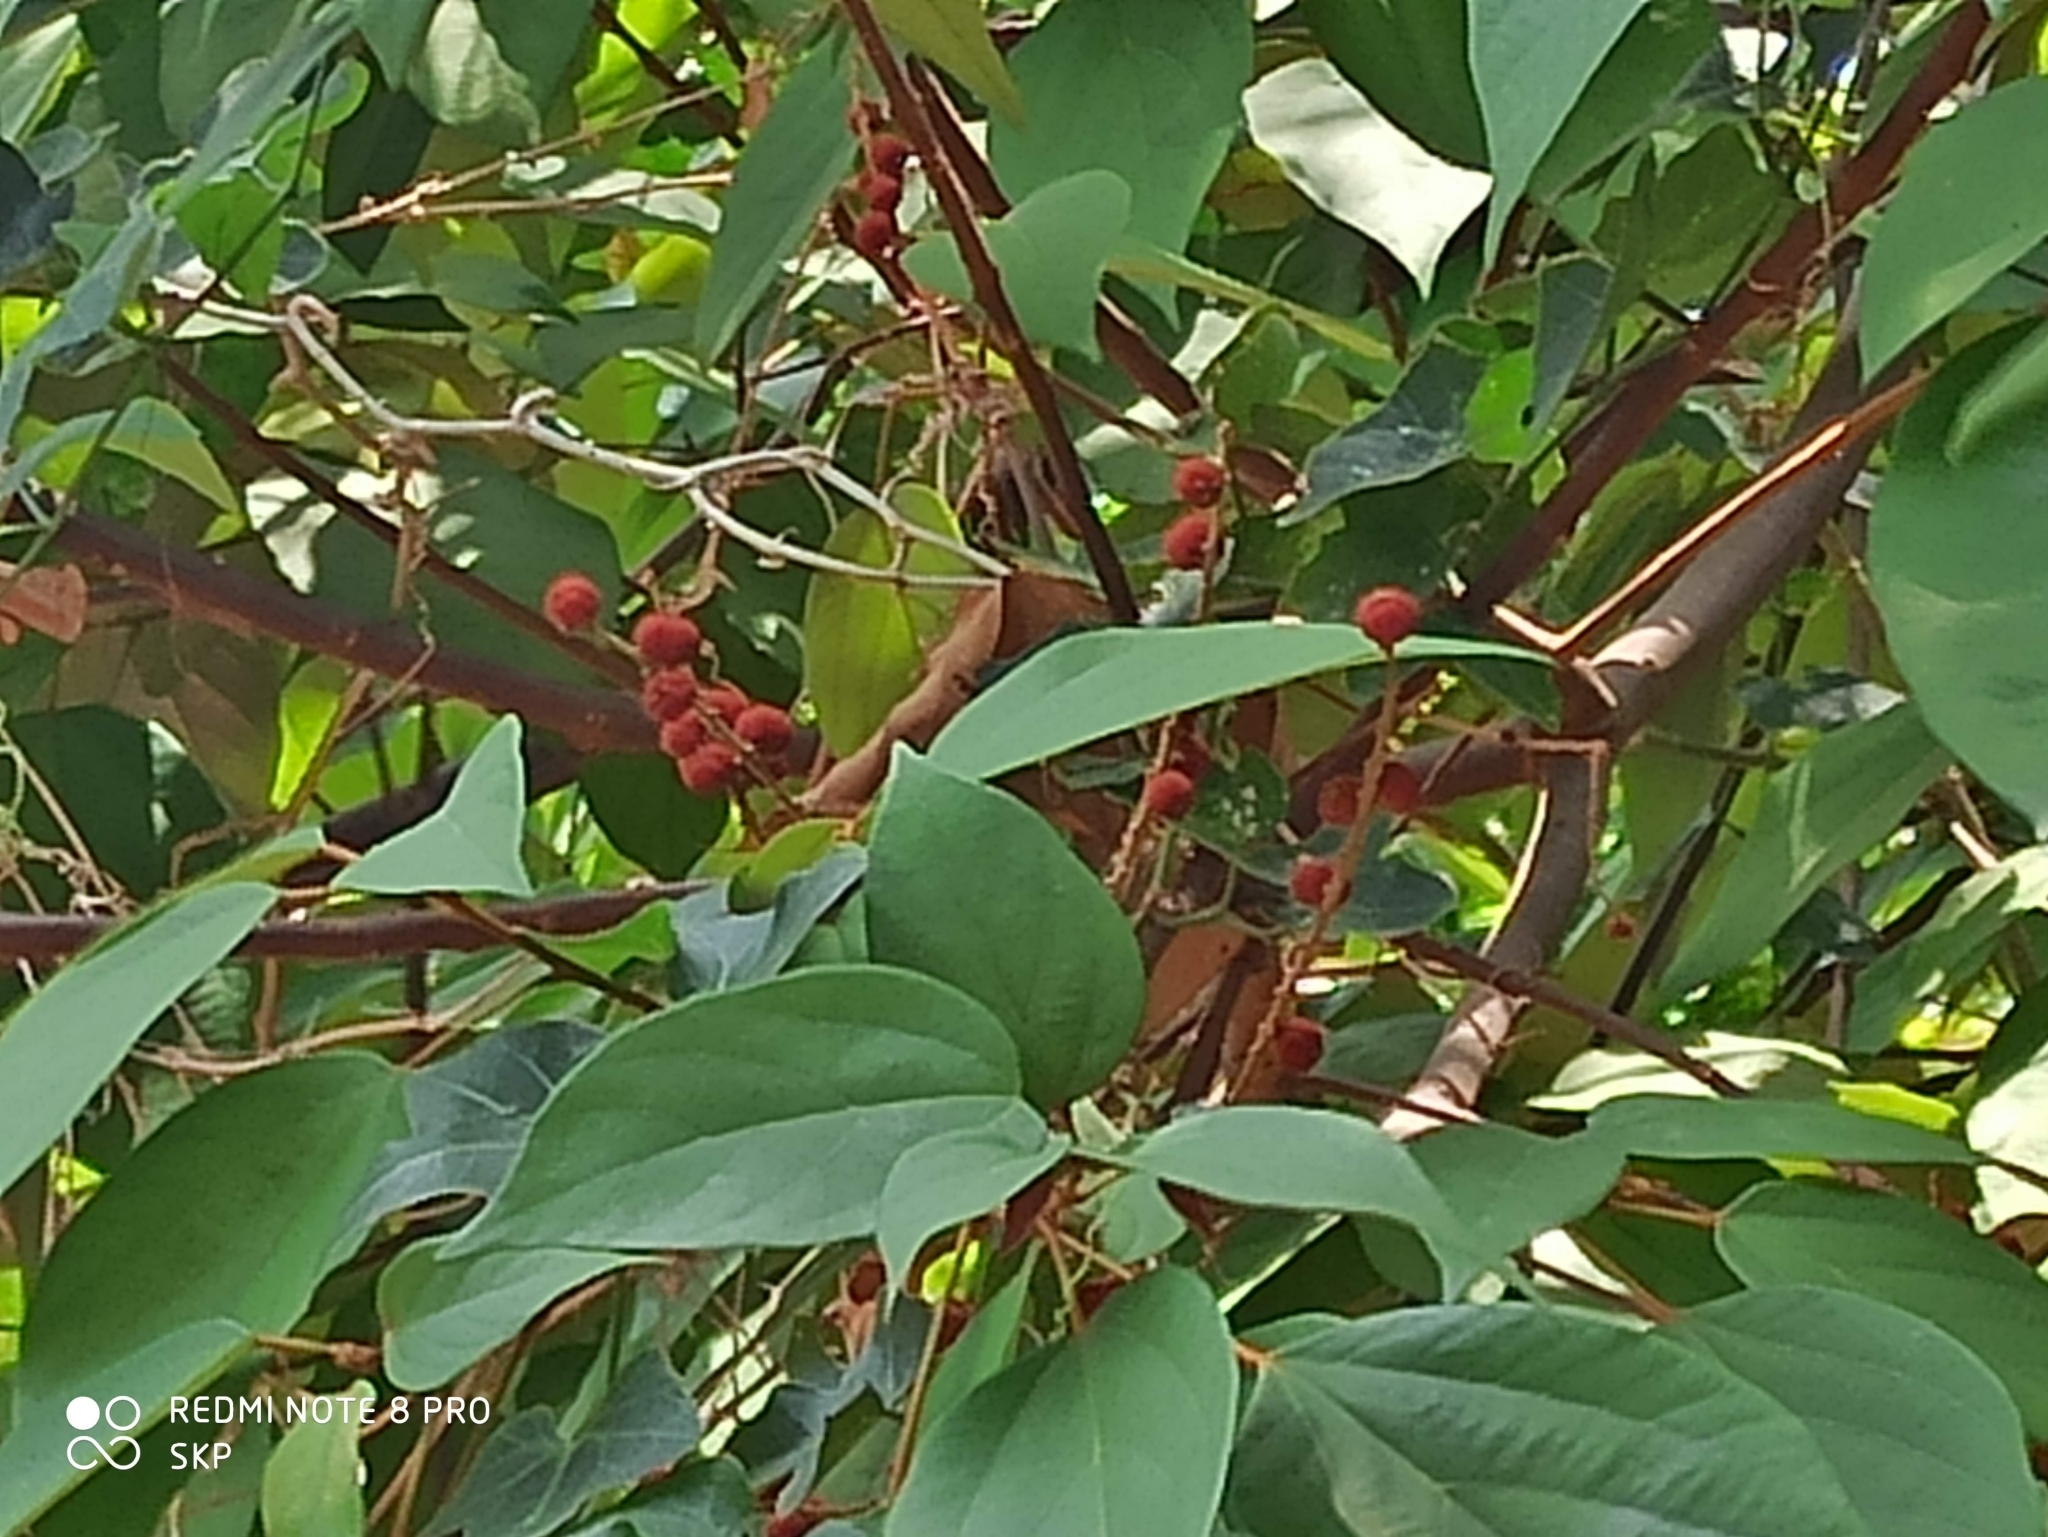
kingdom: Plantae
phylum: Tracheophyta
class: Magnoliopsida
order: Malpighiales
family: Euphorbiaceae
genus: Mallotus
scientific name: Mallotus philippensis
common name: Kamala tree
